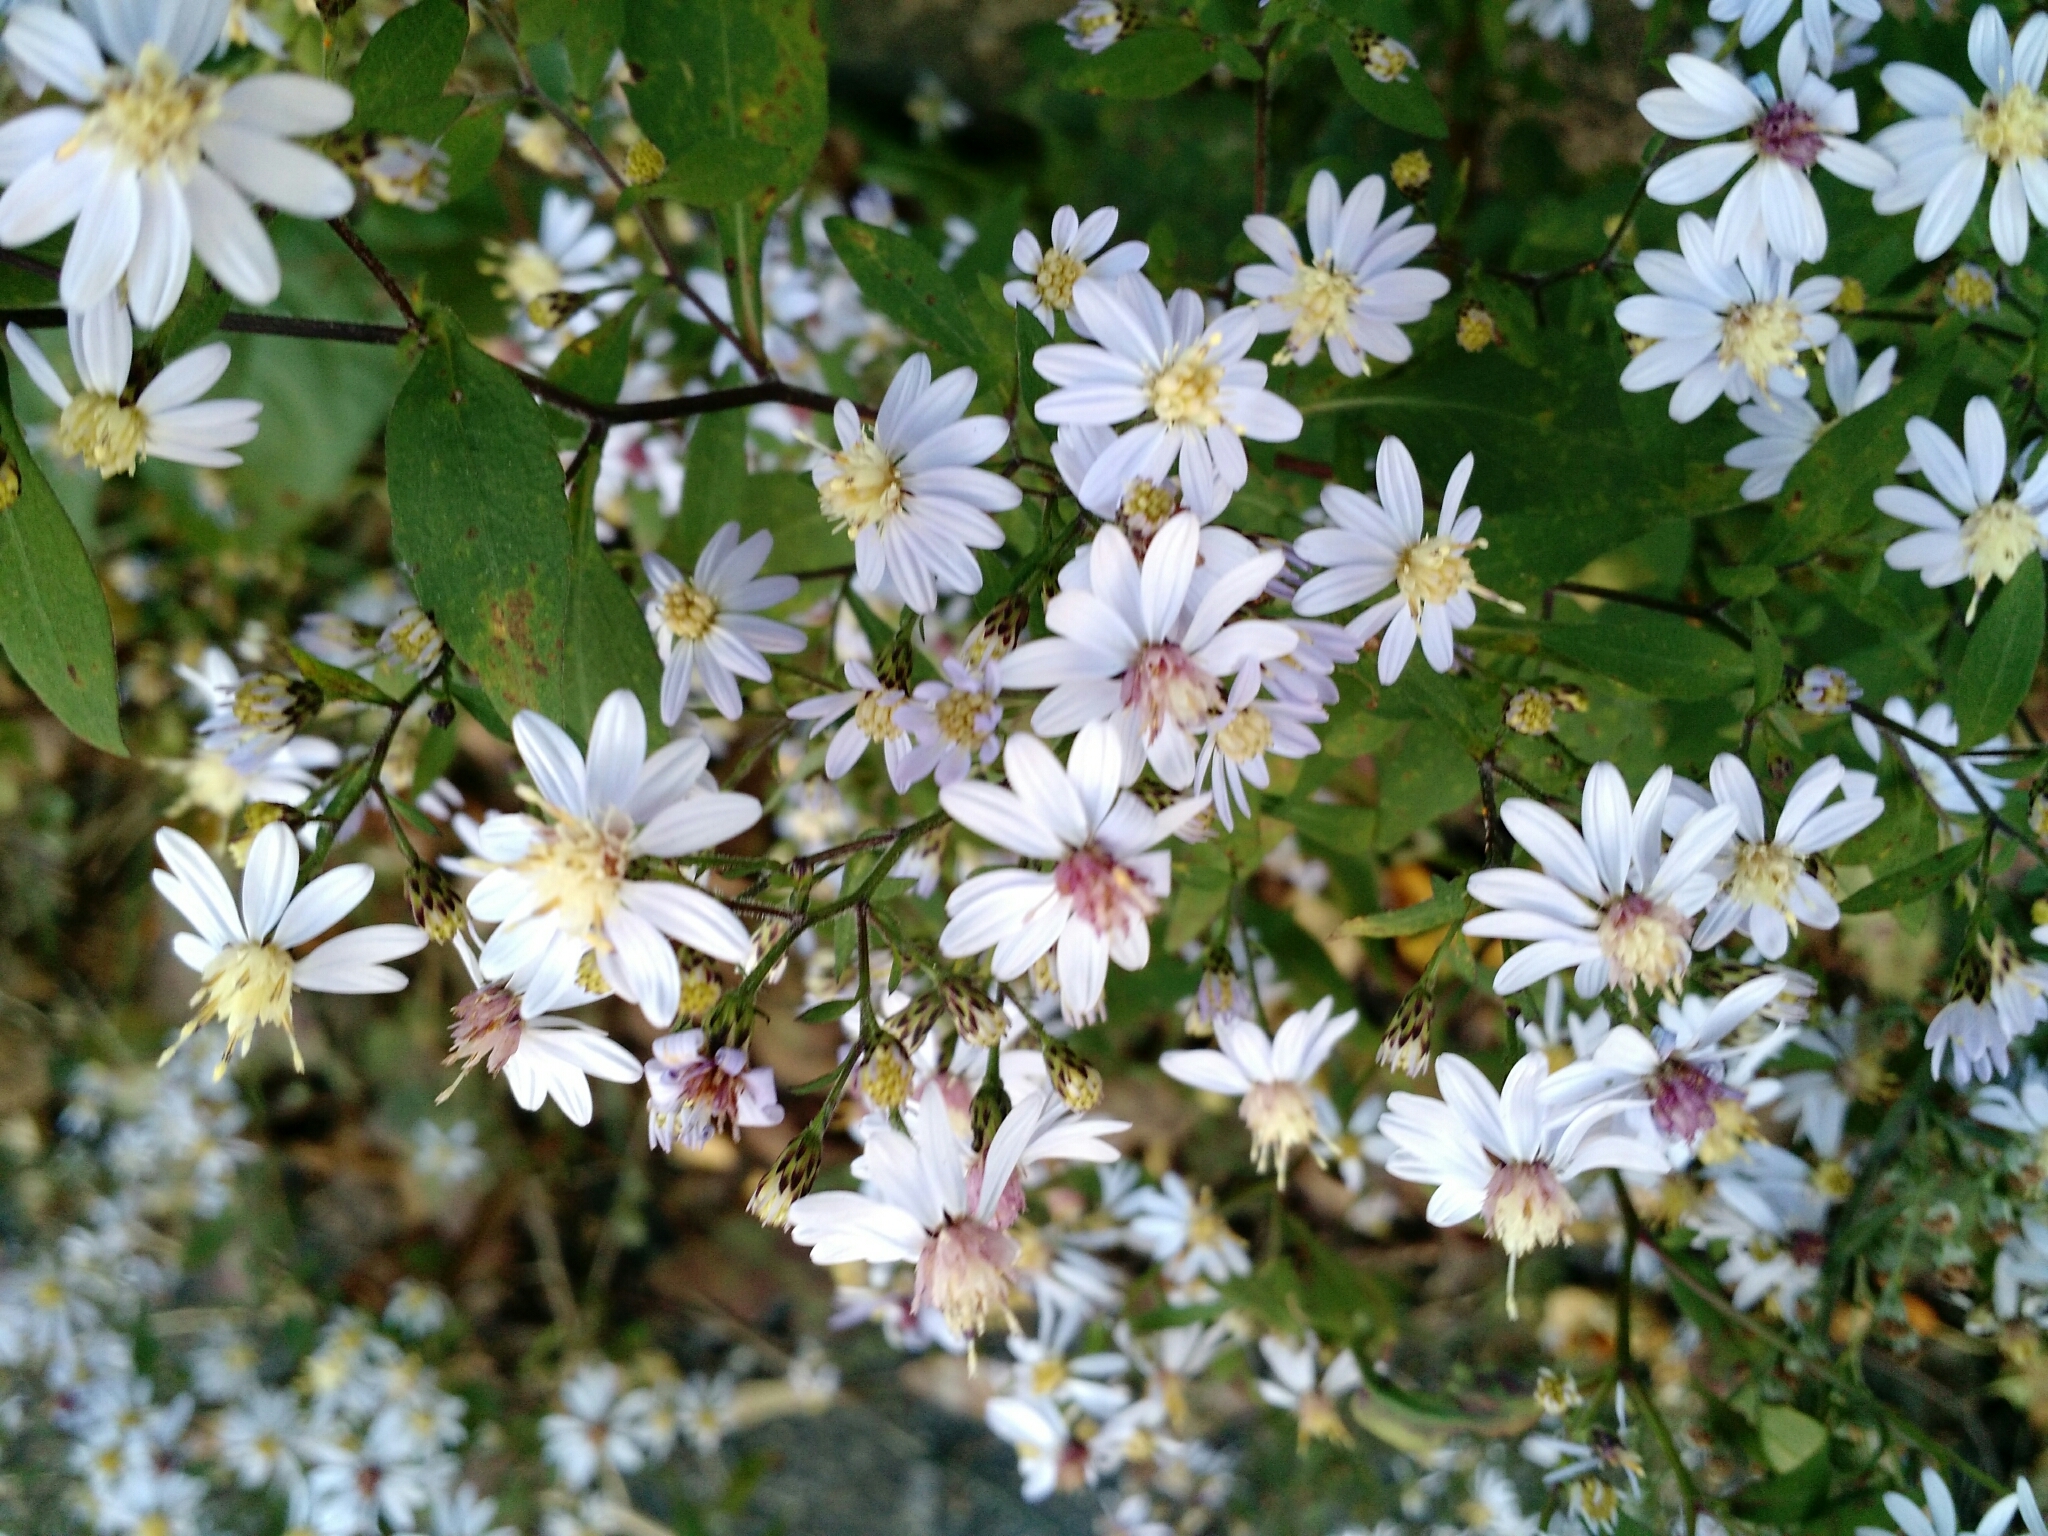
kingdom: Plantae
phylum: Tracheophyta
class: Magnoliopsida
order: Asterales
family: Asteraceae
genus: Symphyotrichum
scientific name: Symphyotrichum cordifolium
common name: Beeweed
